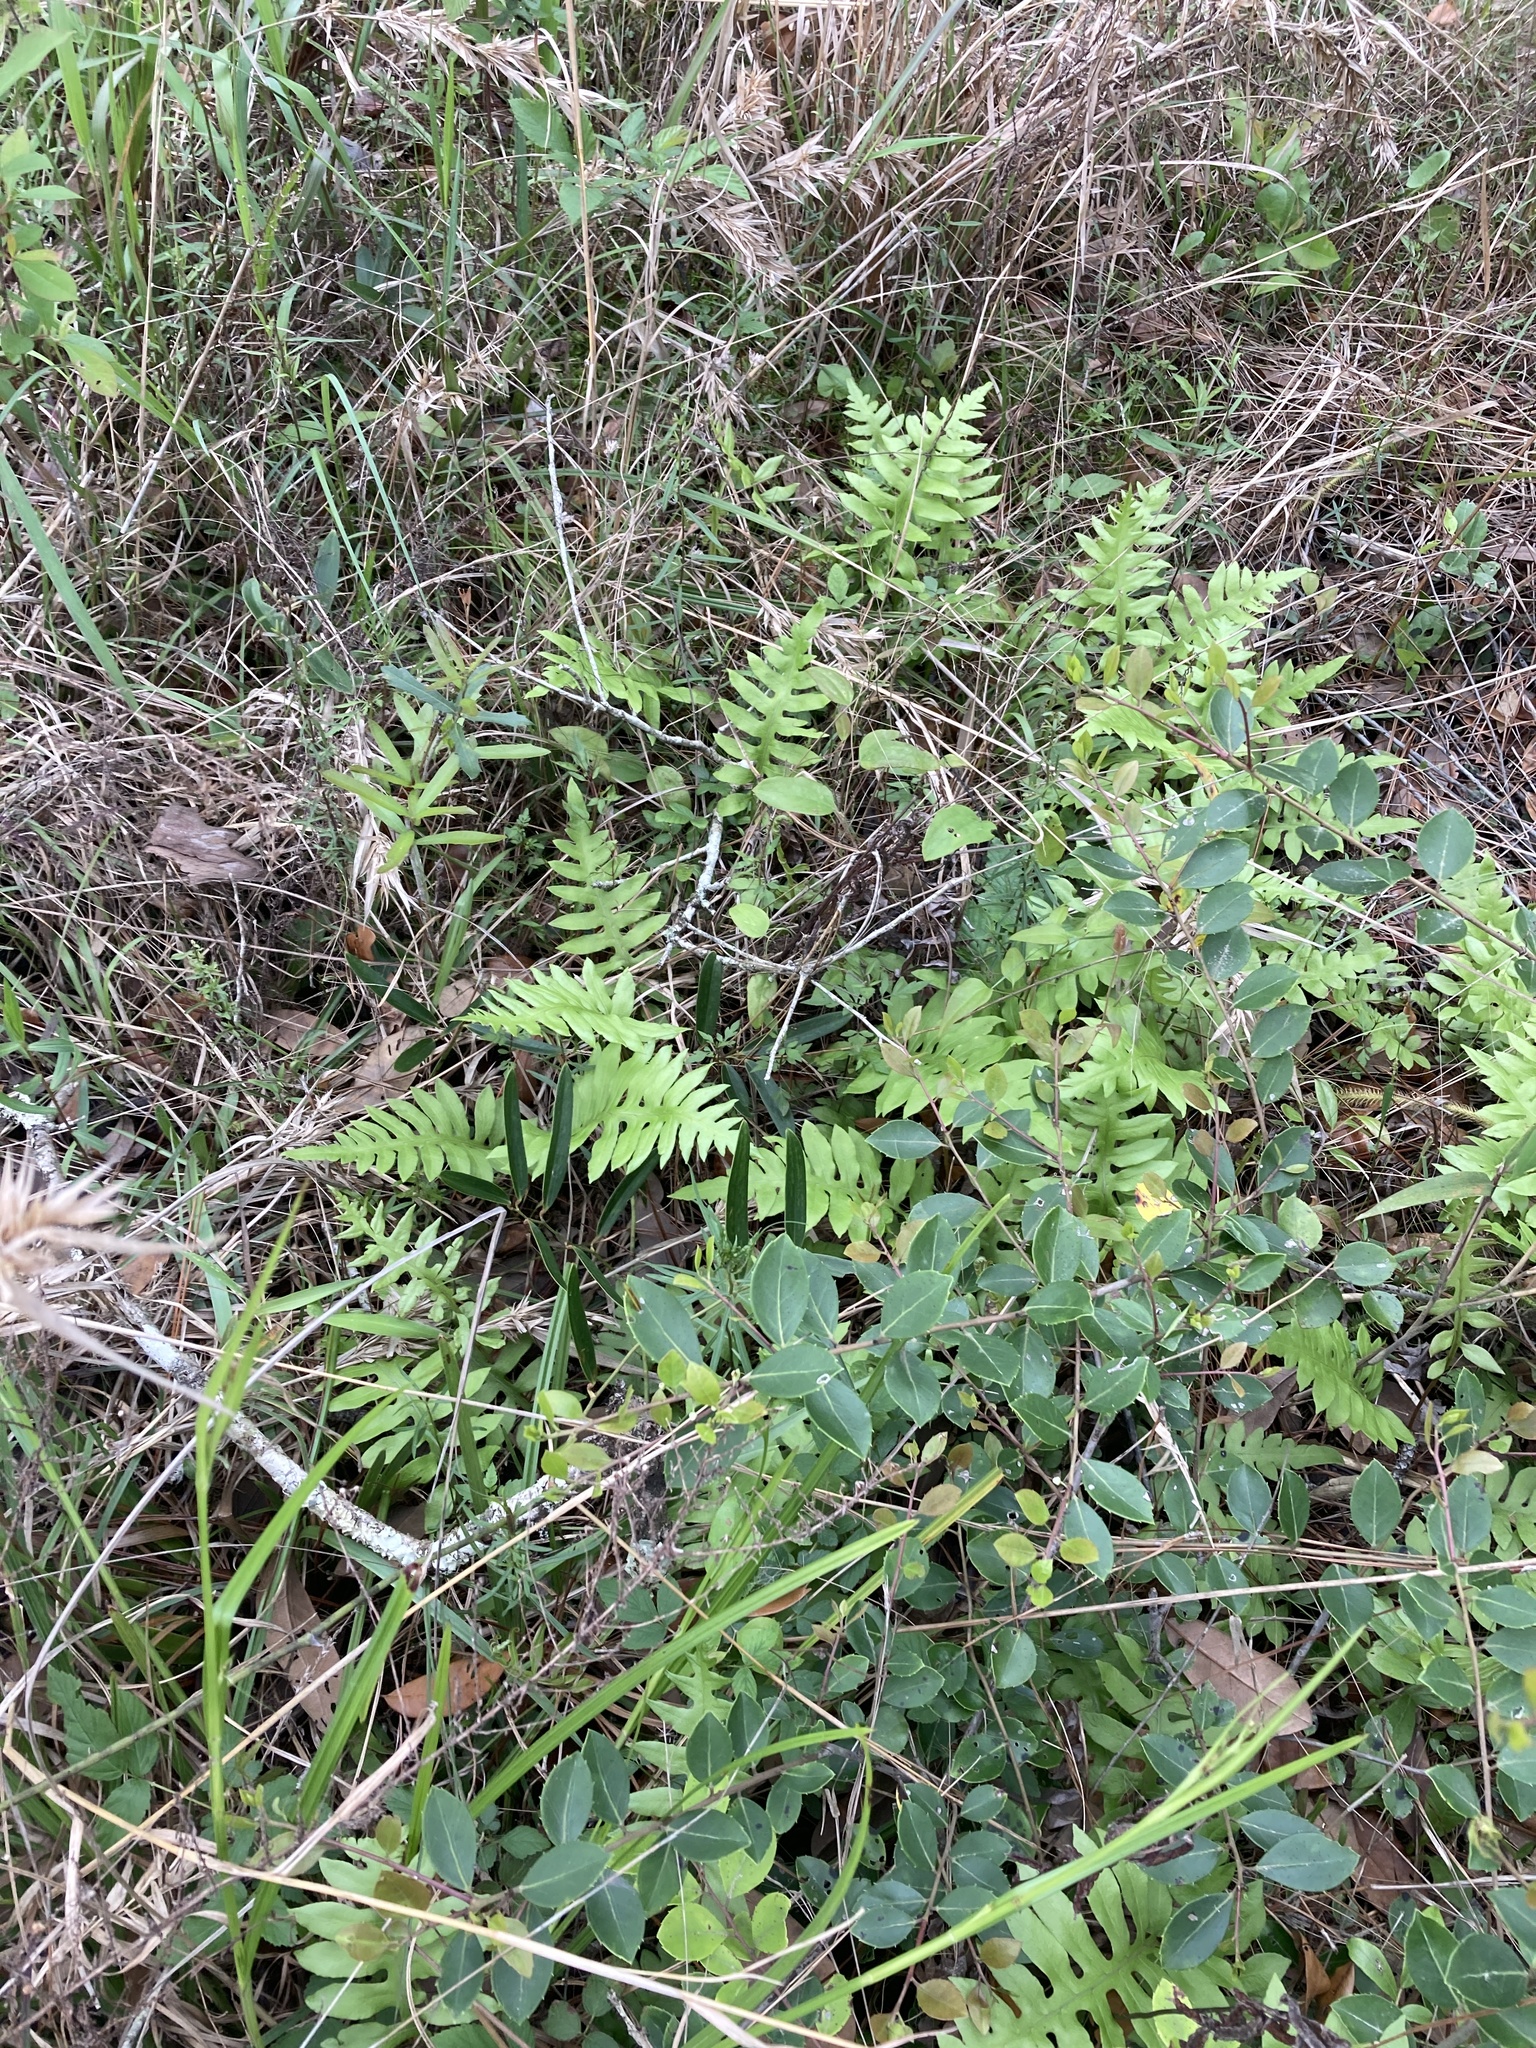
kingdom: Plantae
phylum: Tracheophyta
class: Polypodiopsida
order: Polypodiales
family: Blechnaceae
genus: Lorinseria
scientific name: Lorinseria areolata
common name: Dwarf chain fern
